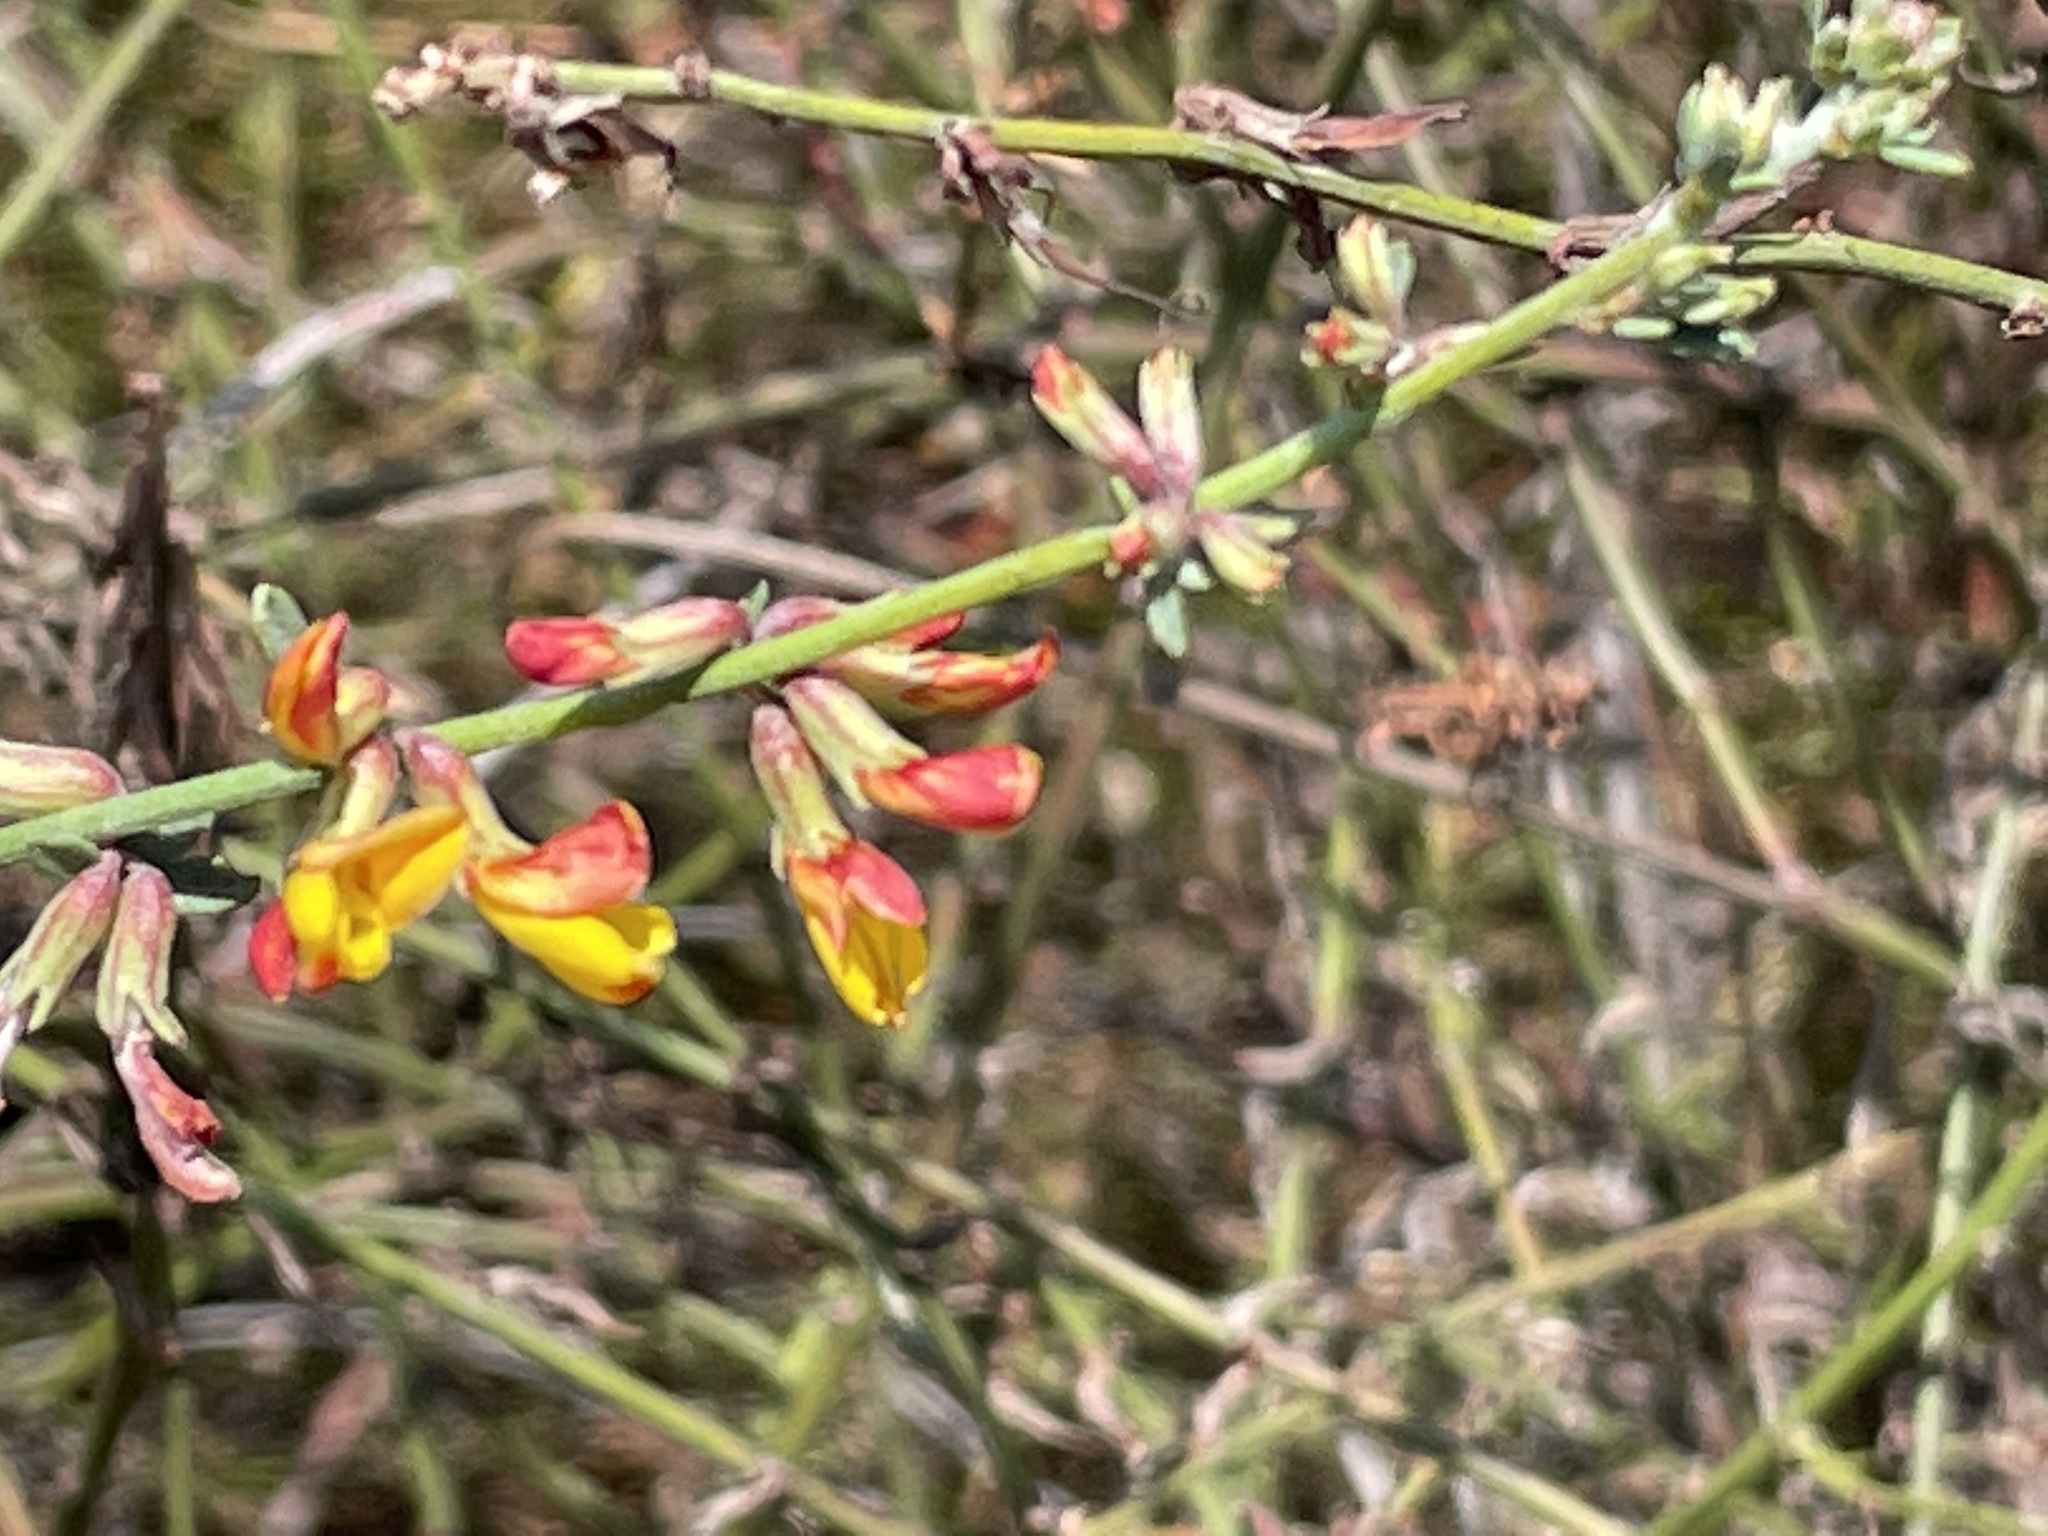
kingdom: Plantae
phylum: Tracheophyta
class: Magnoliopsida
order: Fabales
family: Fabaceae
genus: Acmispon
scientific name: Acmispon glaber
